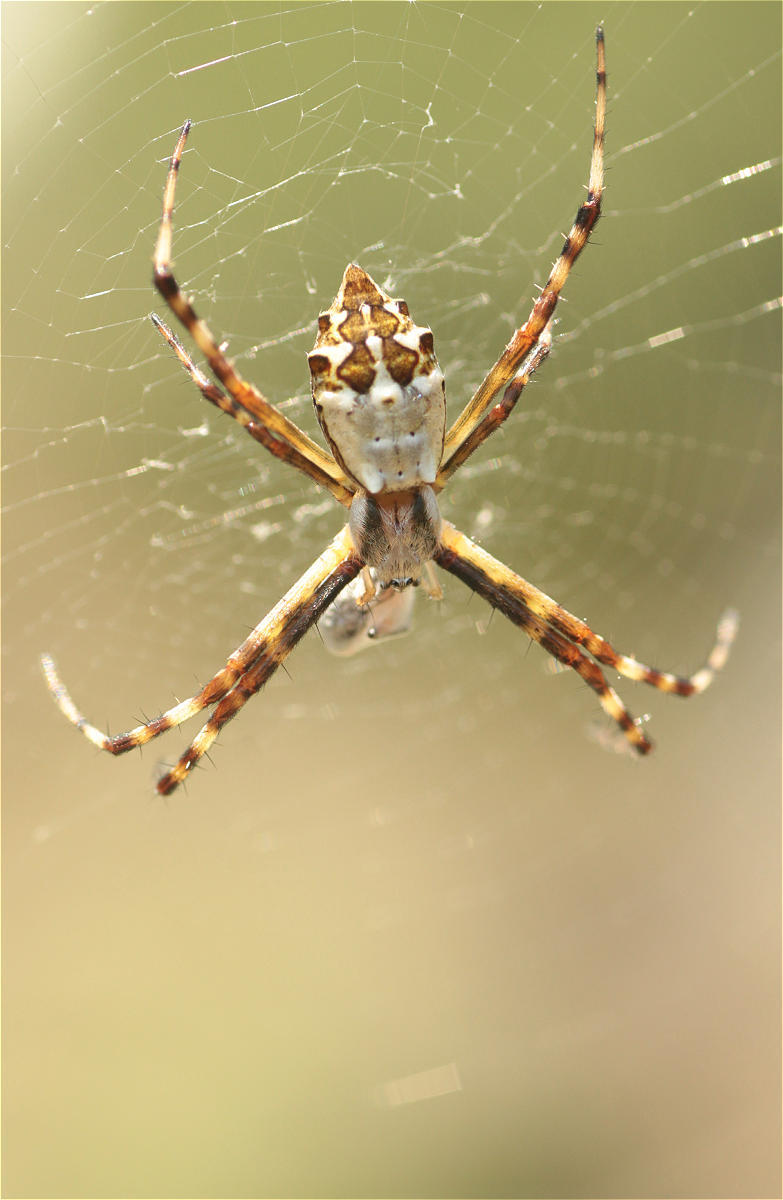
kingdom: Animalia
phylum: Arthropoda
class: Arachnida
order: Araneae
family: Araneidae
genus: Argiope
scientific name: Argiope argentata
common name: Orb weavers
